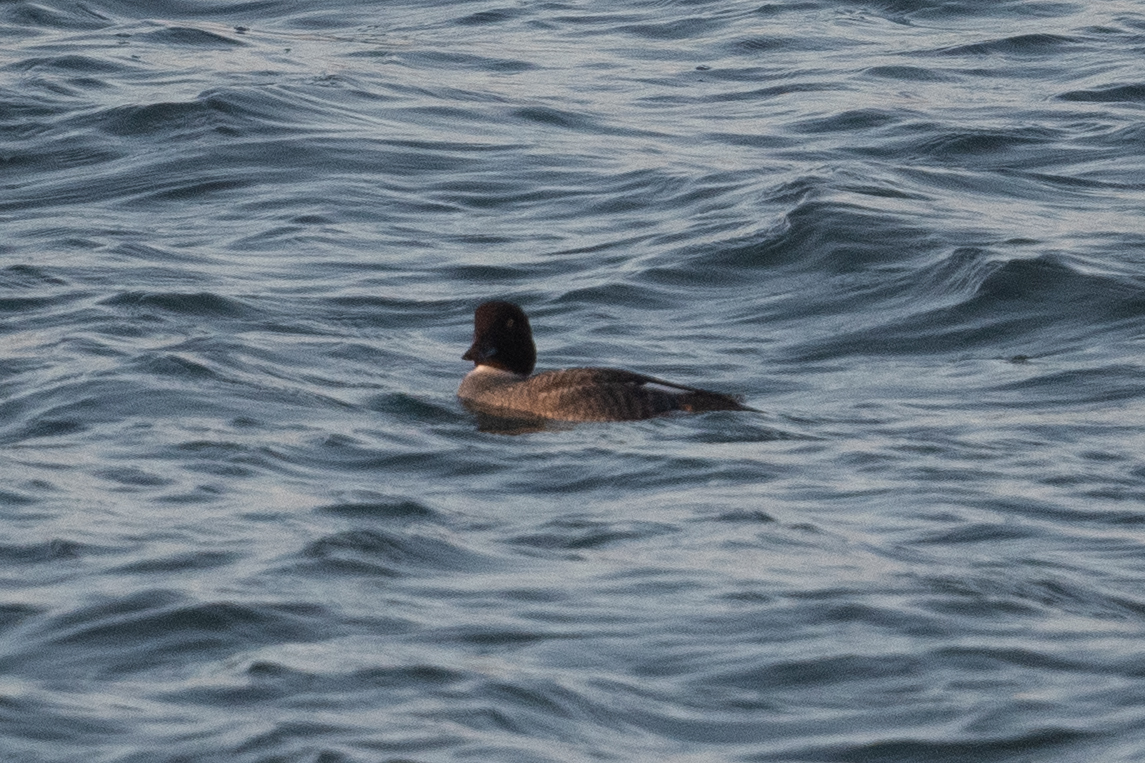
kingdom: Animalia
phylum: Chordata
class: Aves
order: Anseriformes
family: Anatidae
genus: Aythya
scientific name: Aythya marila
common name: Greater scaup
